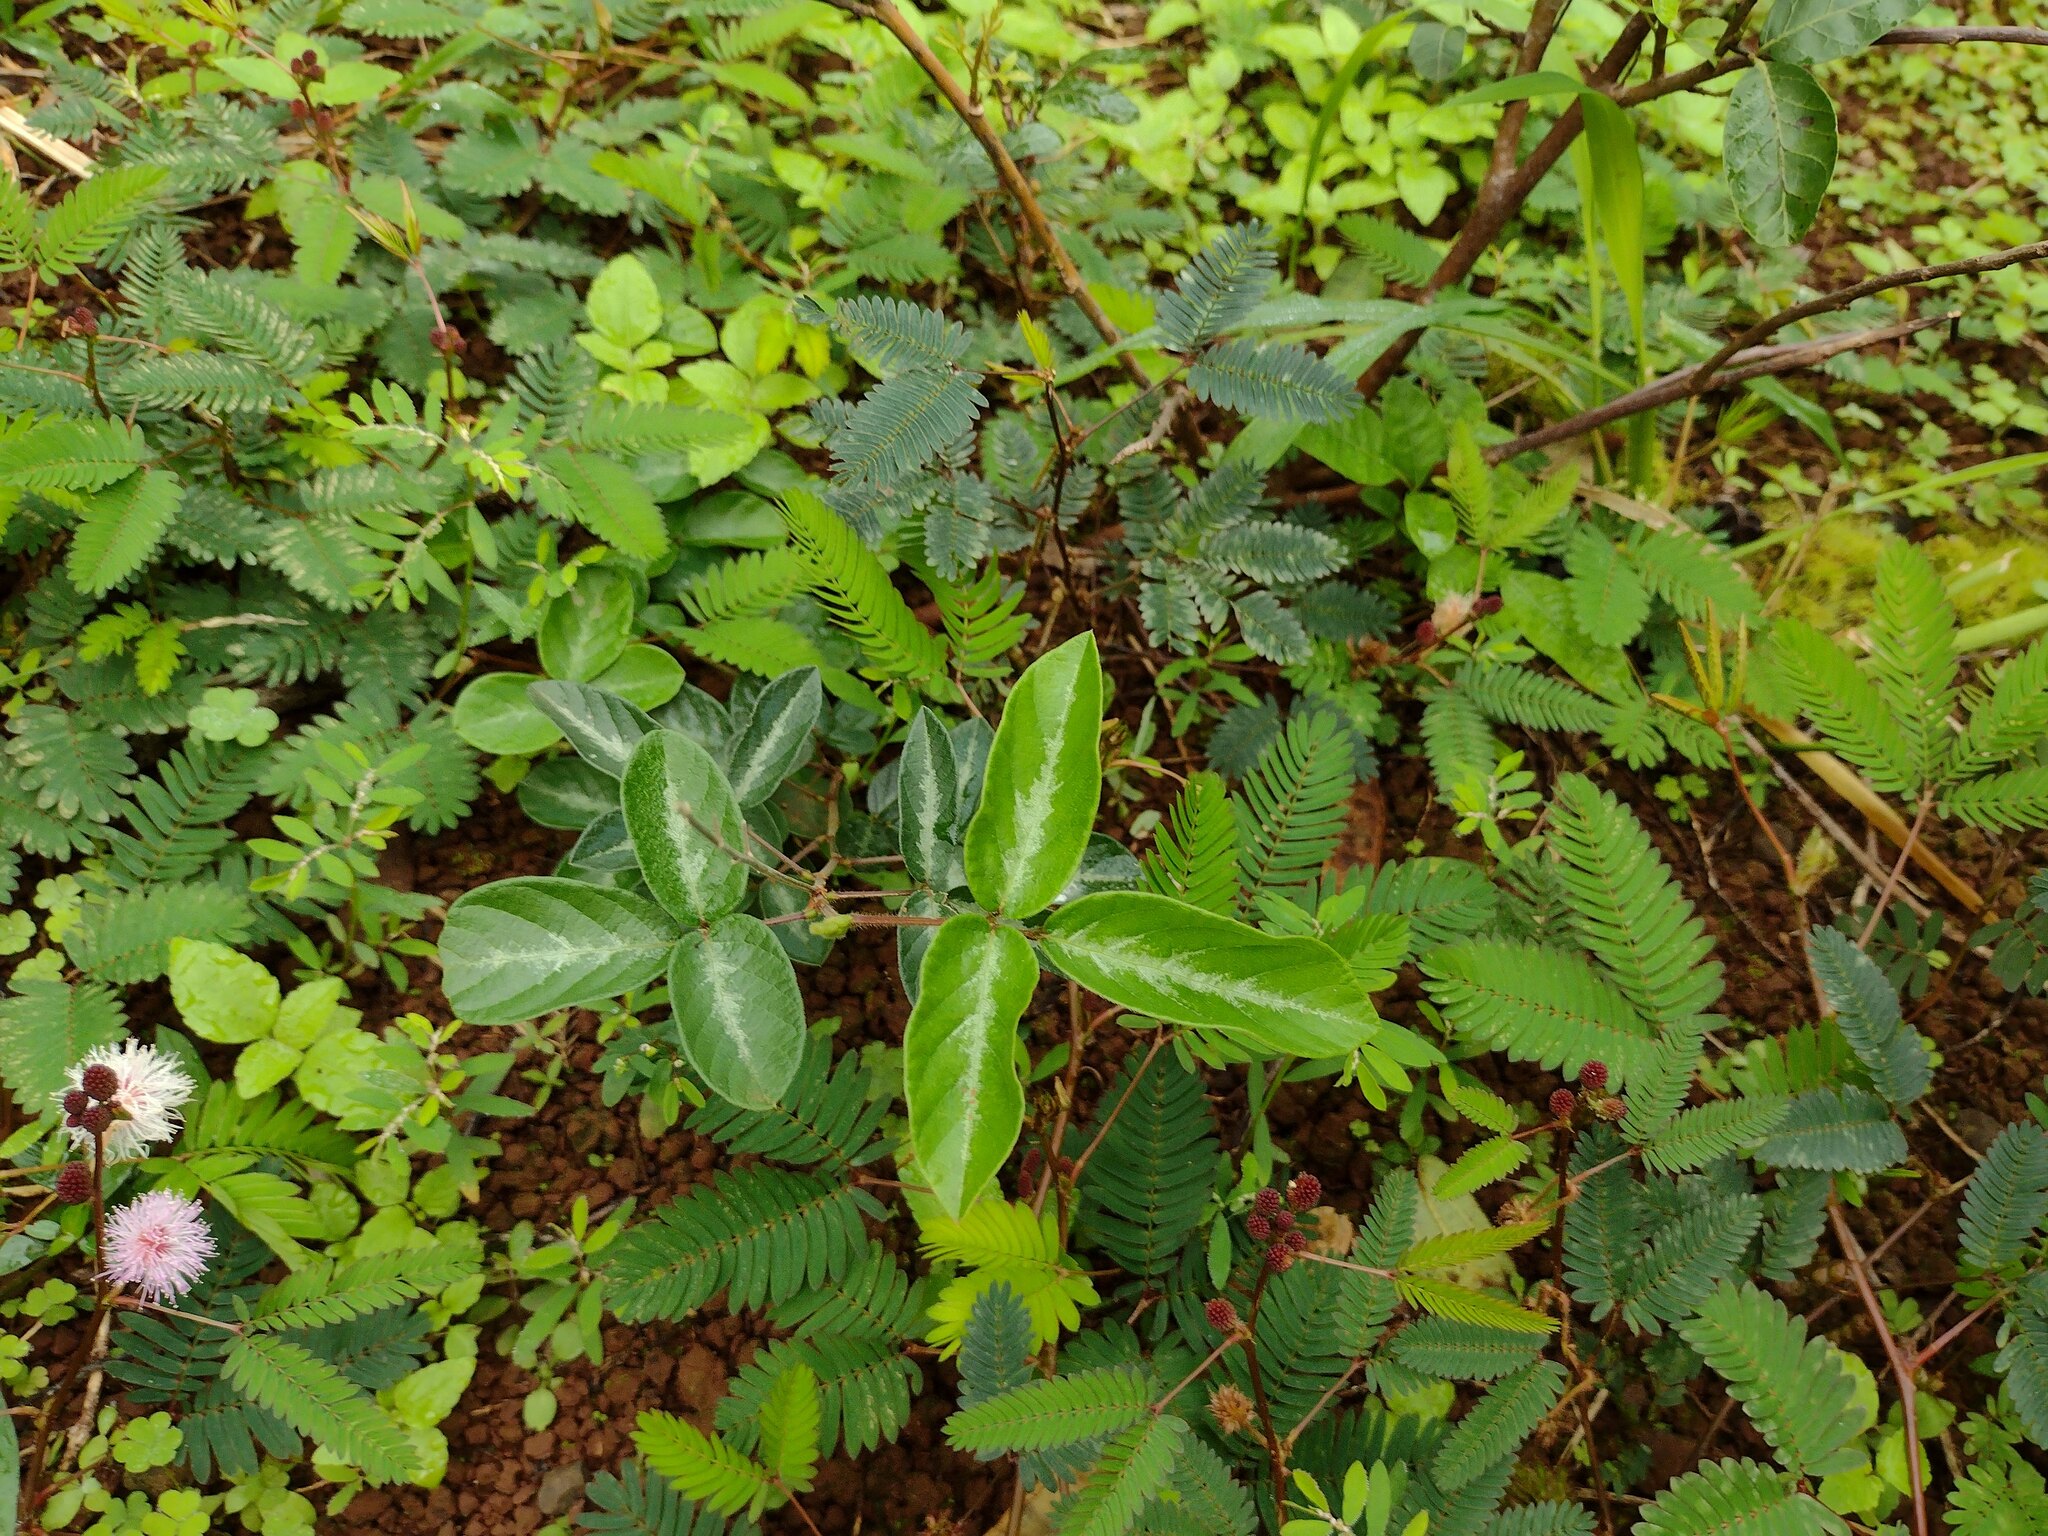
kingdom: Plantae
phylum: Tracheophyta
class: Magnoliopsida
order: Fabales
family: Fabaceae
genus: Desmodium
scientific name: Desmodium incanum
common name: Tickclover
